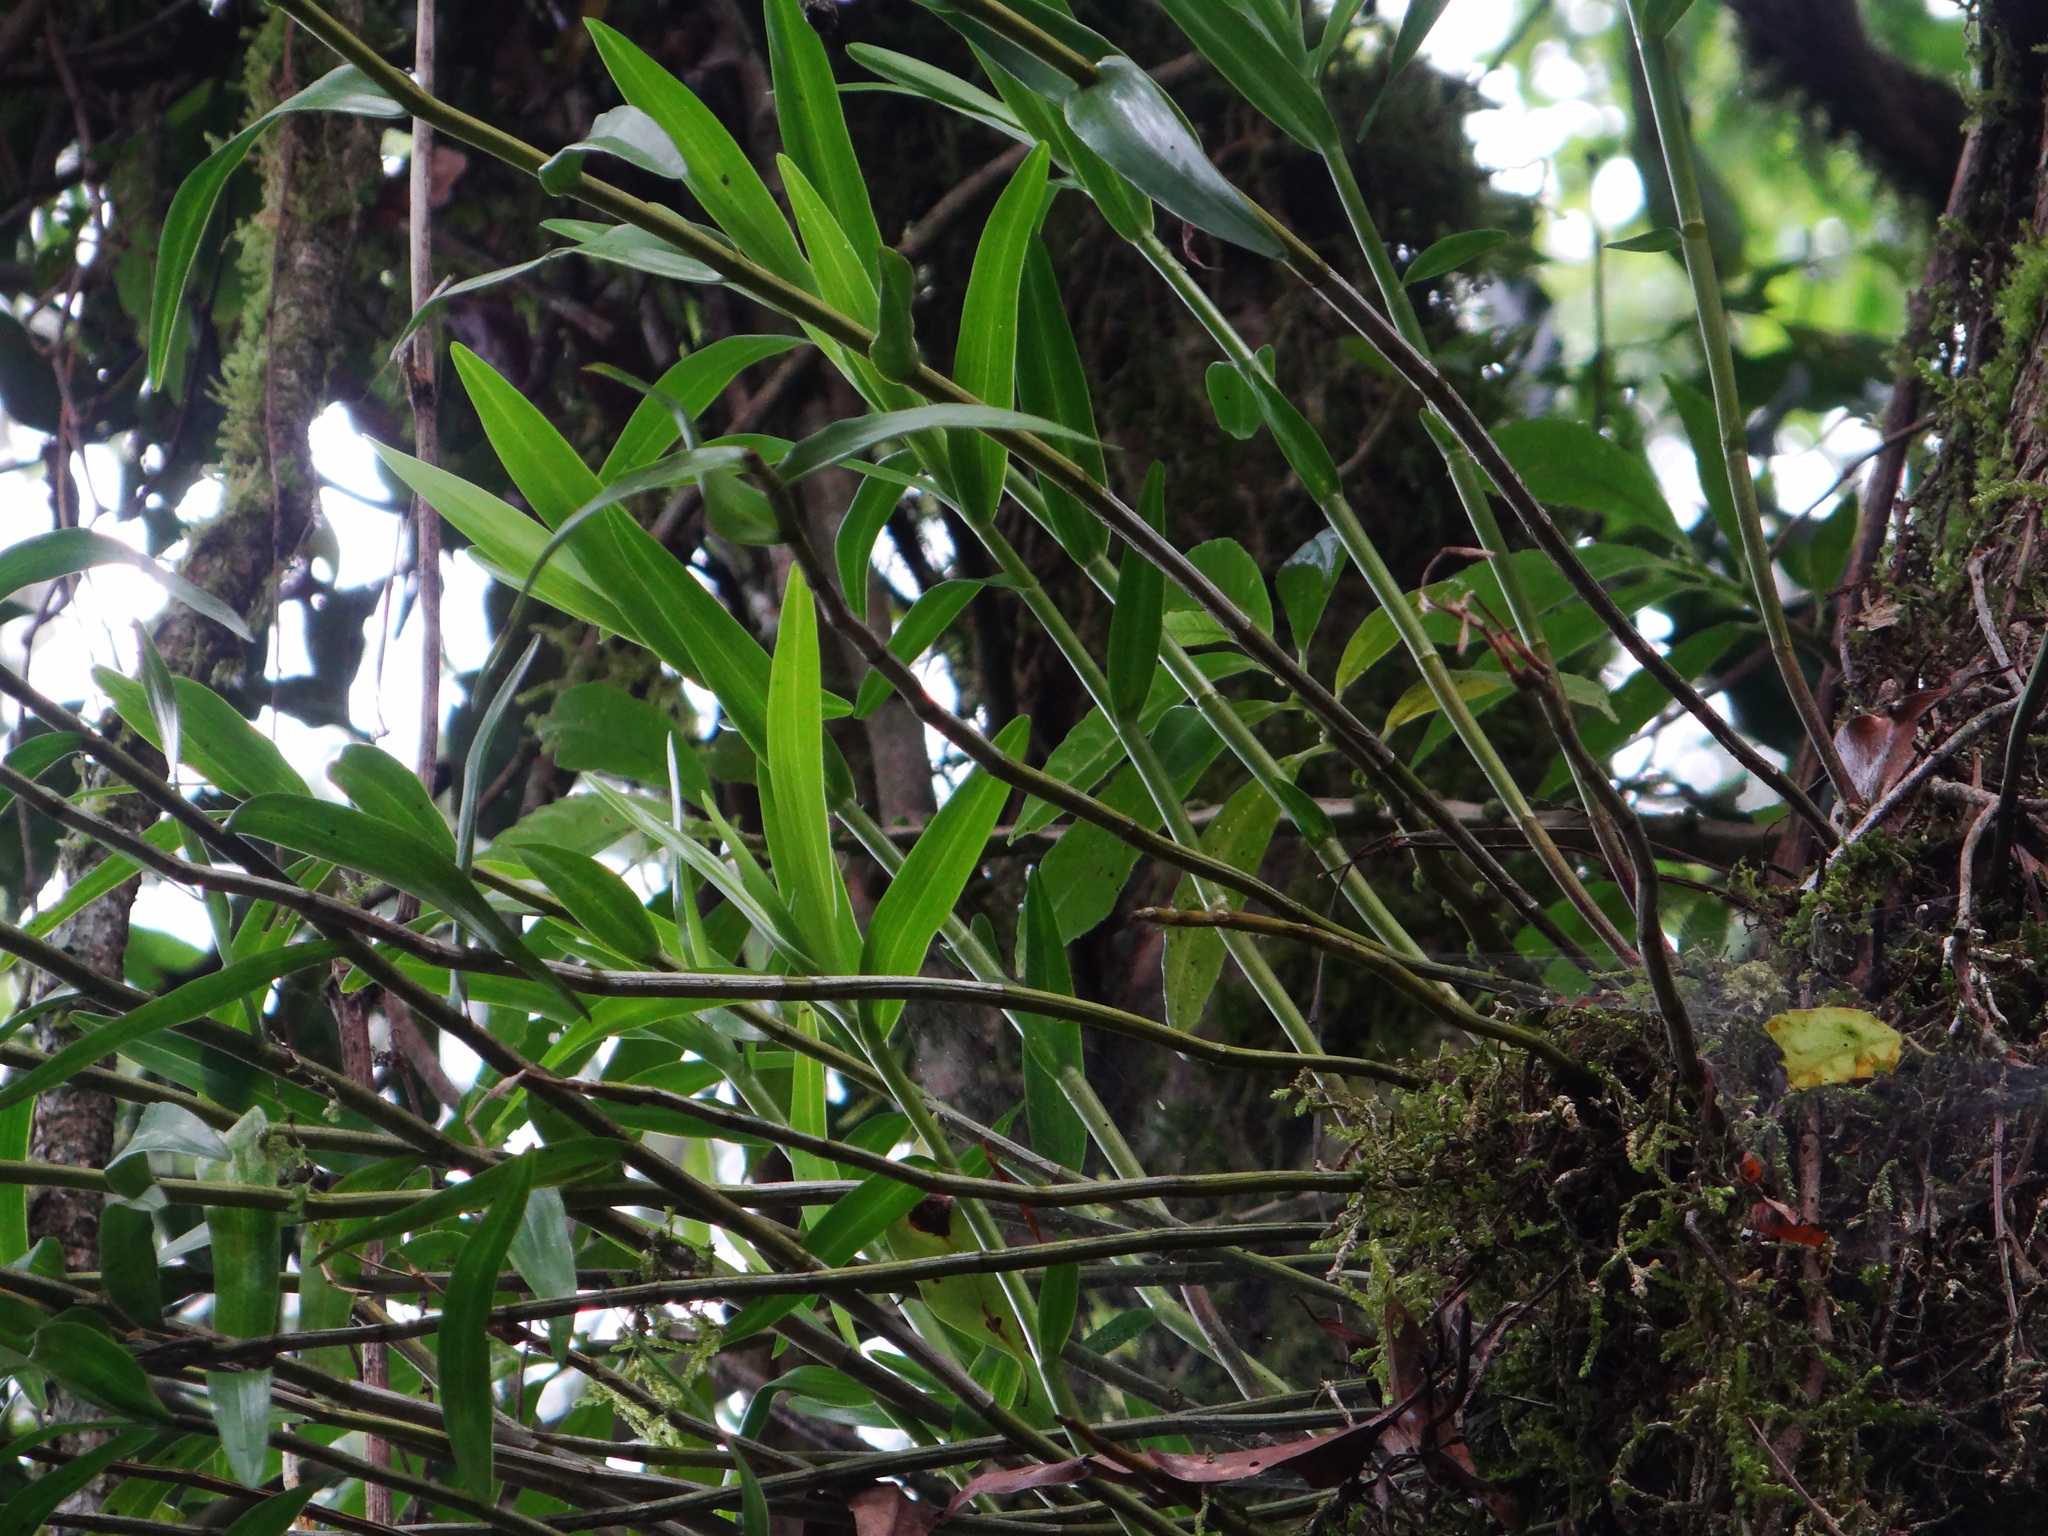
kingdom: Plantae
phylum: Tracheophyta
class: Liliopsida
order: Asparagales
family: Orchidaceae
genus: Dendrobium
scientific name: Dendrobium moniliforme
